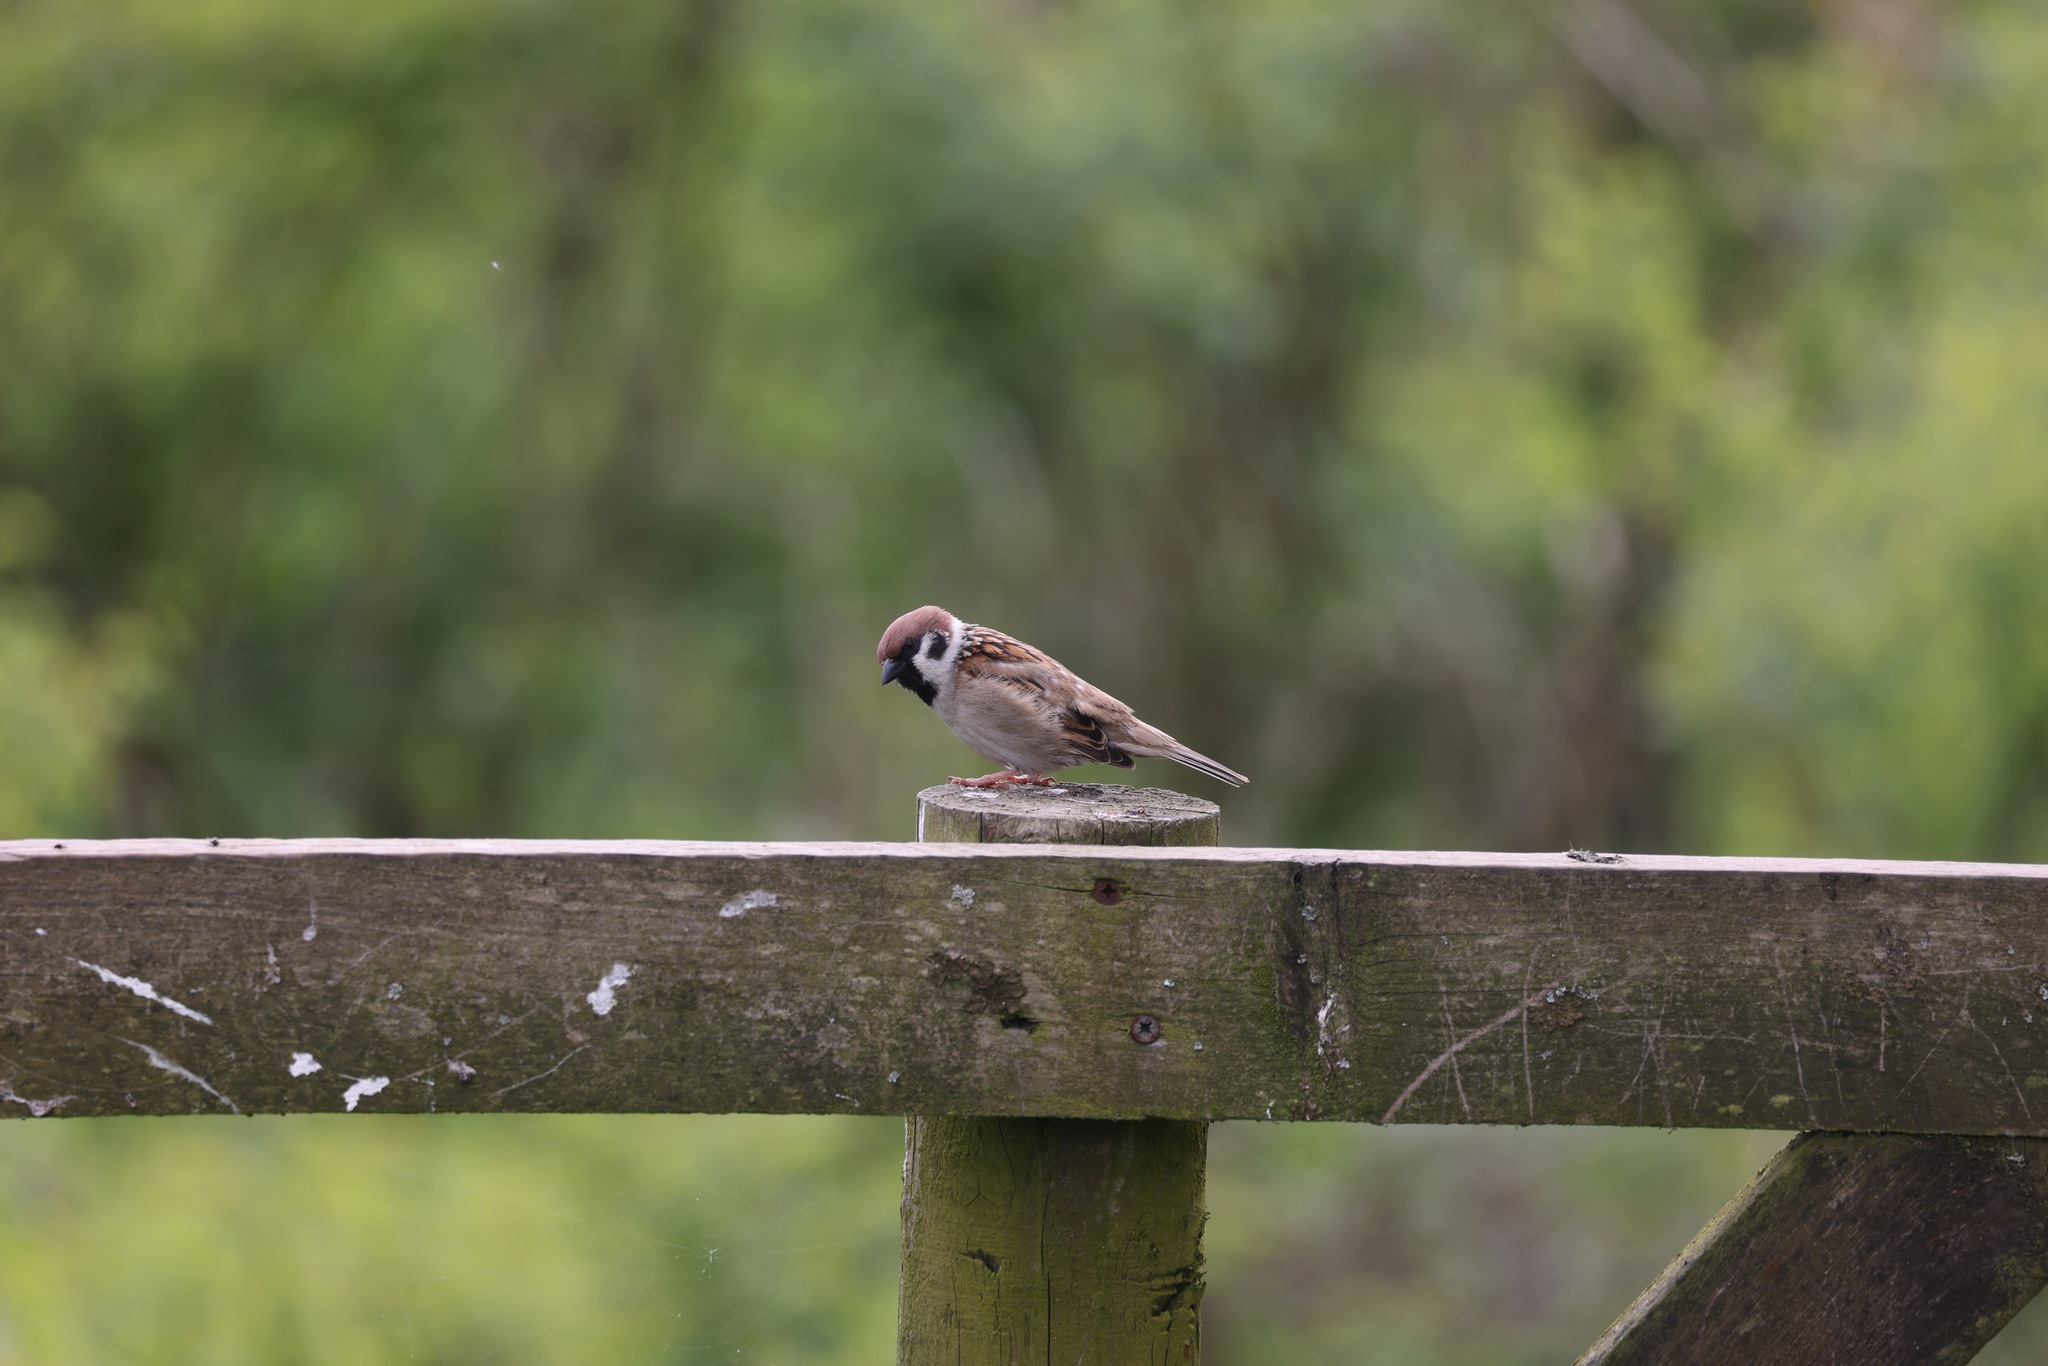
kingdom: Animalia
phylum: Chordata
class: Aves
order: Passeriformes
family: Passeridae
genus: Passer
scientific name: Passer montanus
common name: Eurasian tree sparrow
